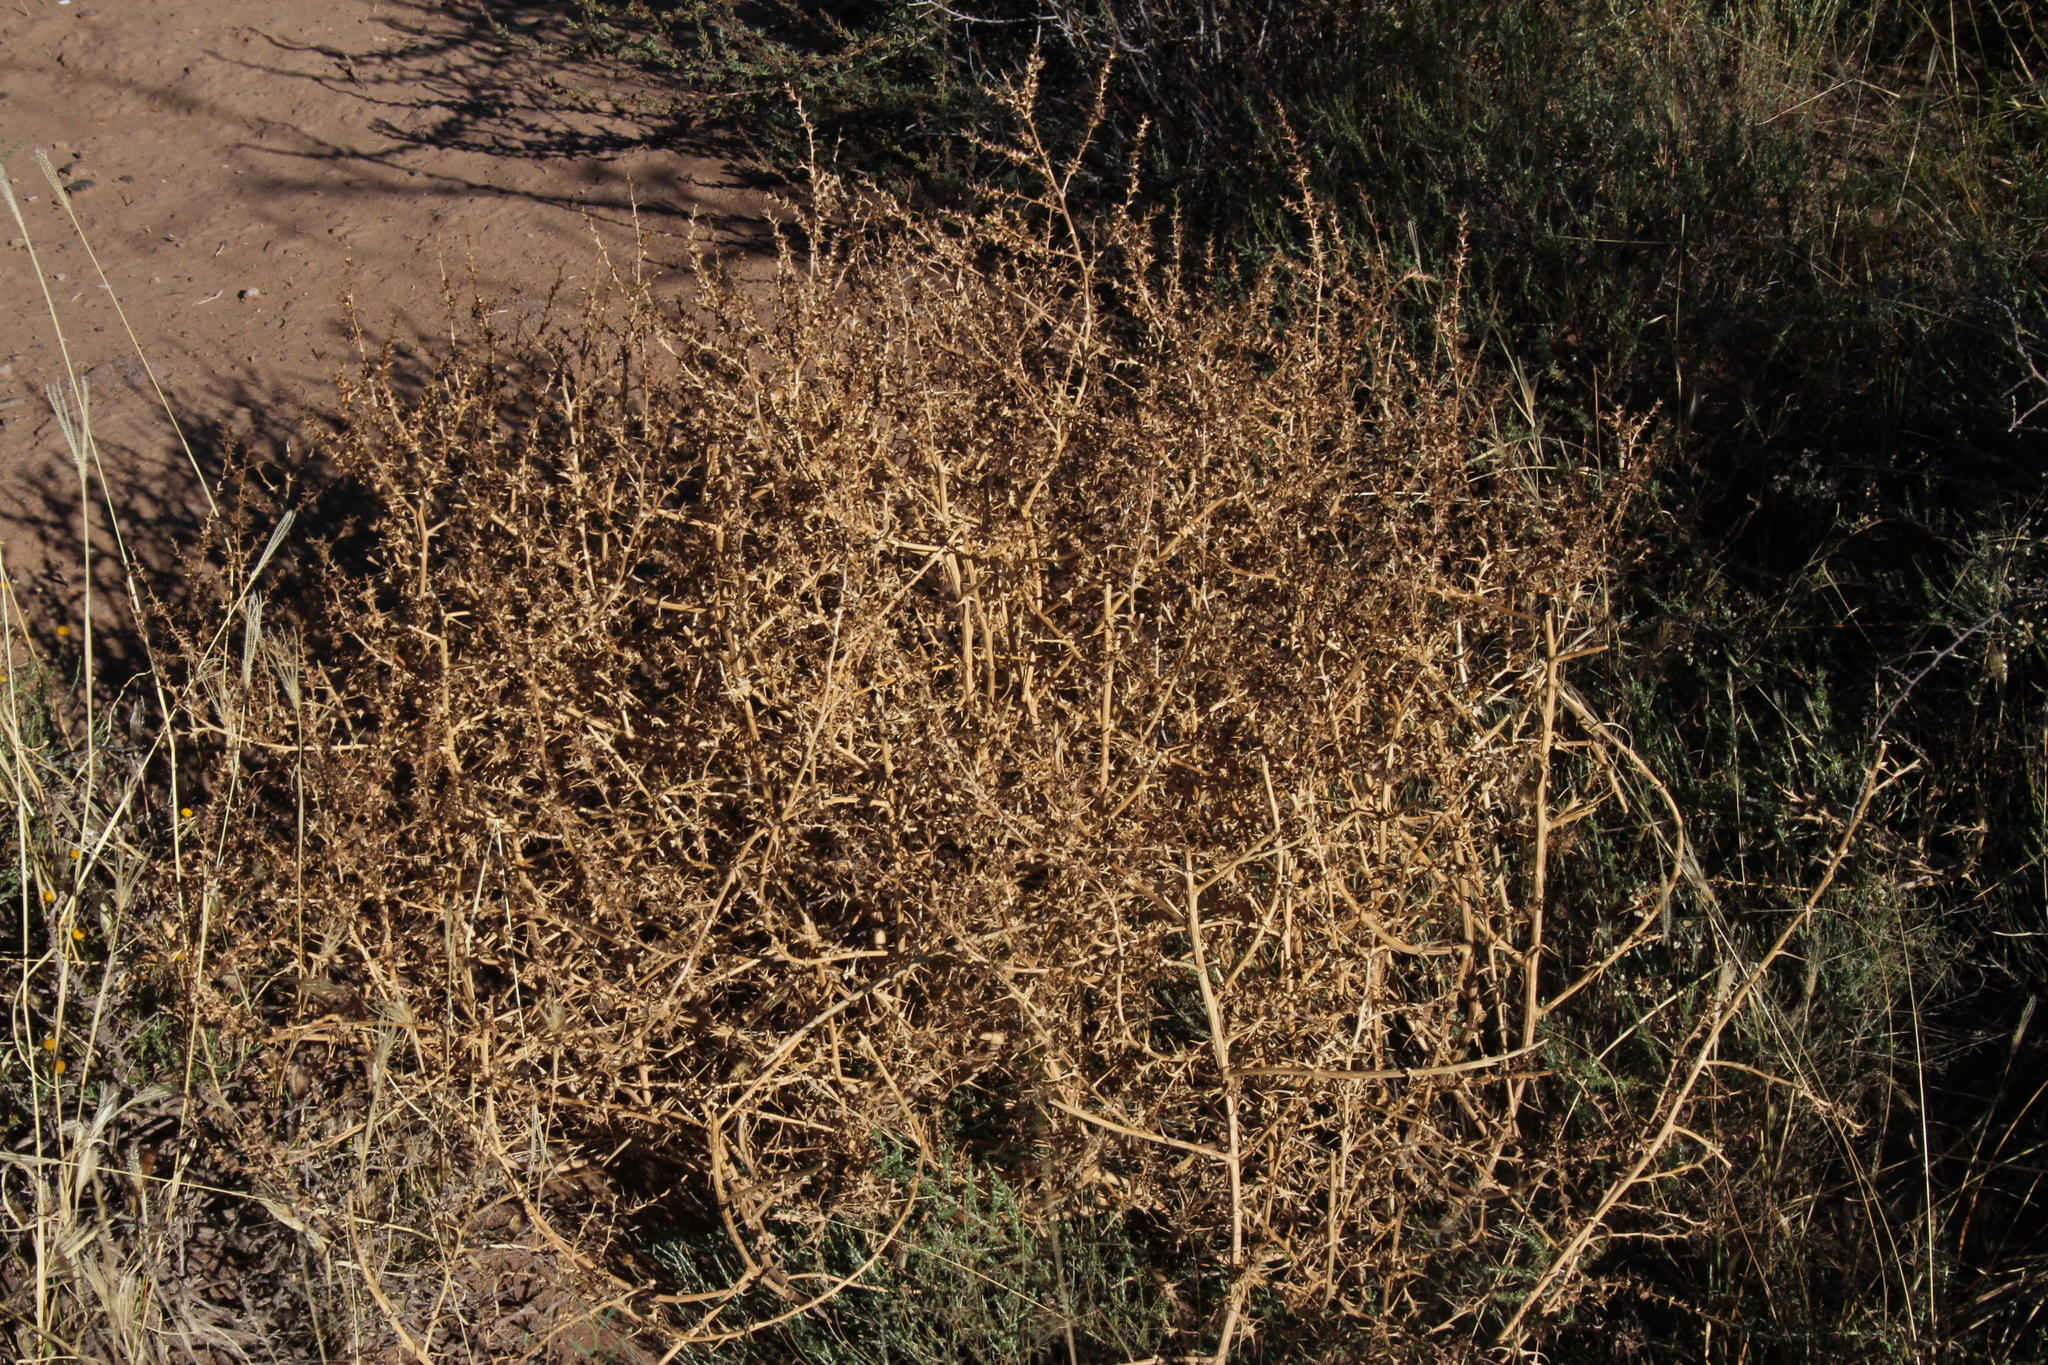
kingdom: Plantae
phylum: Tracheophyta
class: Magnoliopsida
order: Caryophyllales
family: Amaranthaceae
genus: Salsola
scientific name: Salsola kali
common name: Saltwort
